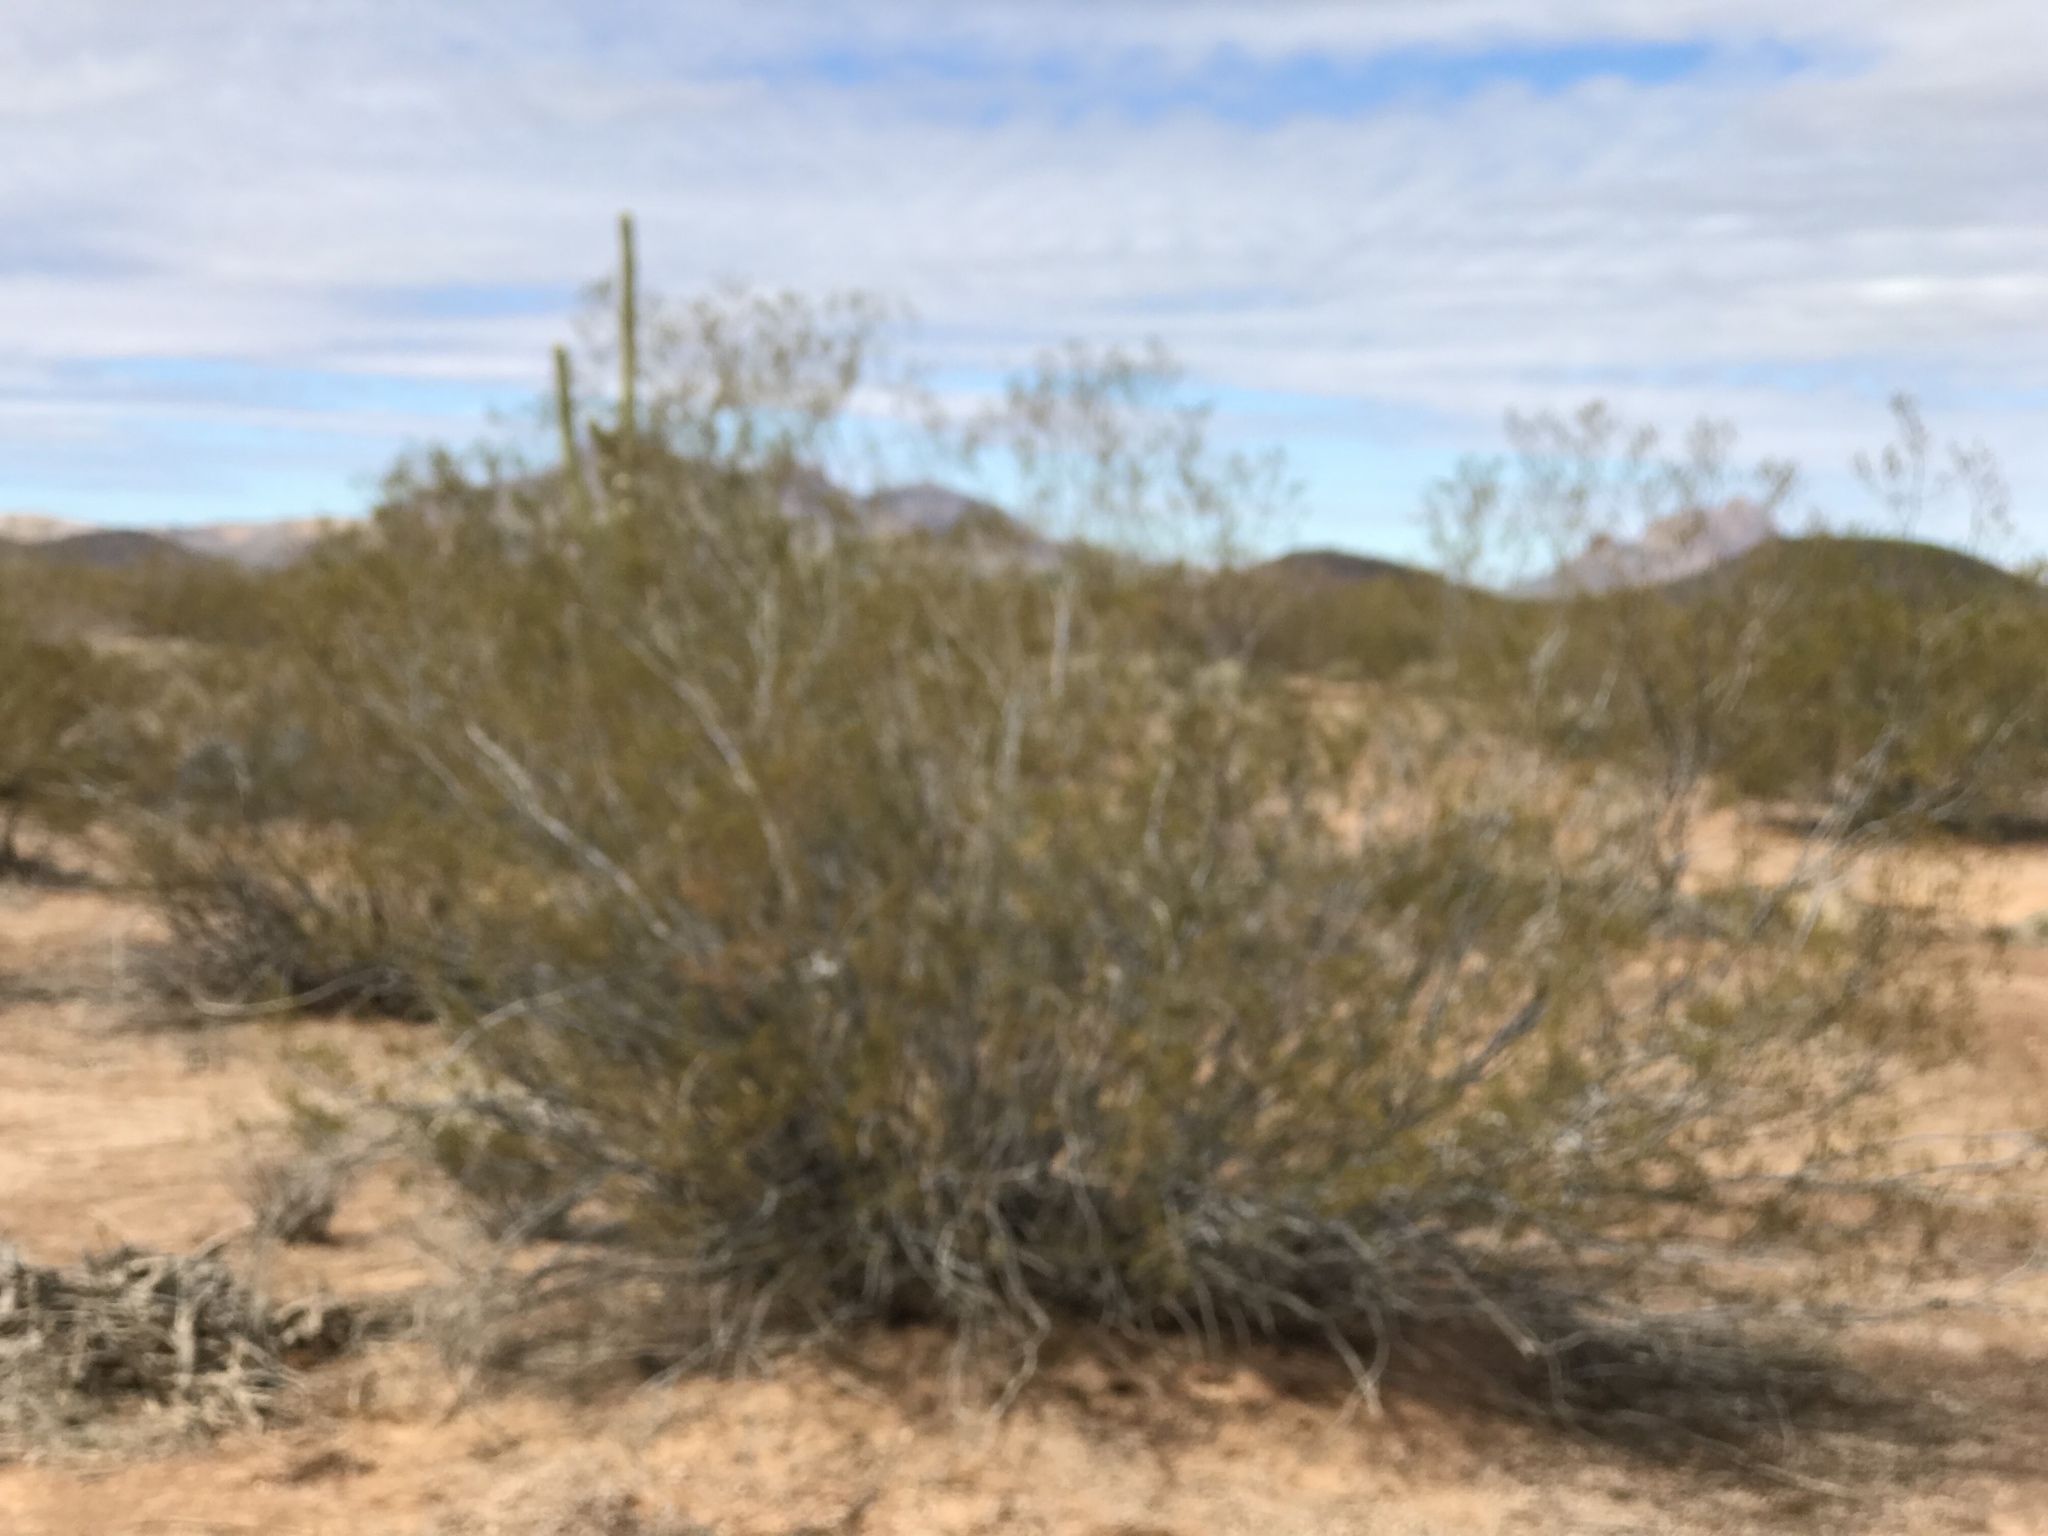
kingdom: Plantae
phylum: Tracheophyta
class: Magnoliopsida
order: Zygophyllales
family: Zygophyllaceae
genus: Larrea
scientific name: Larrea tridentata
